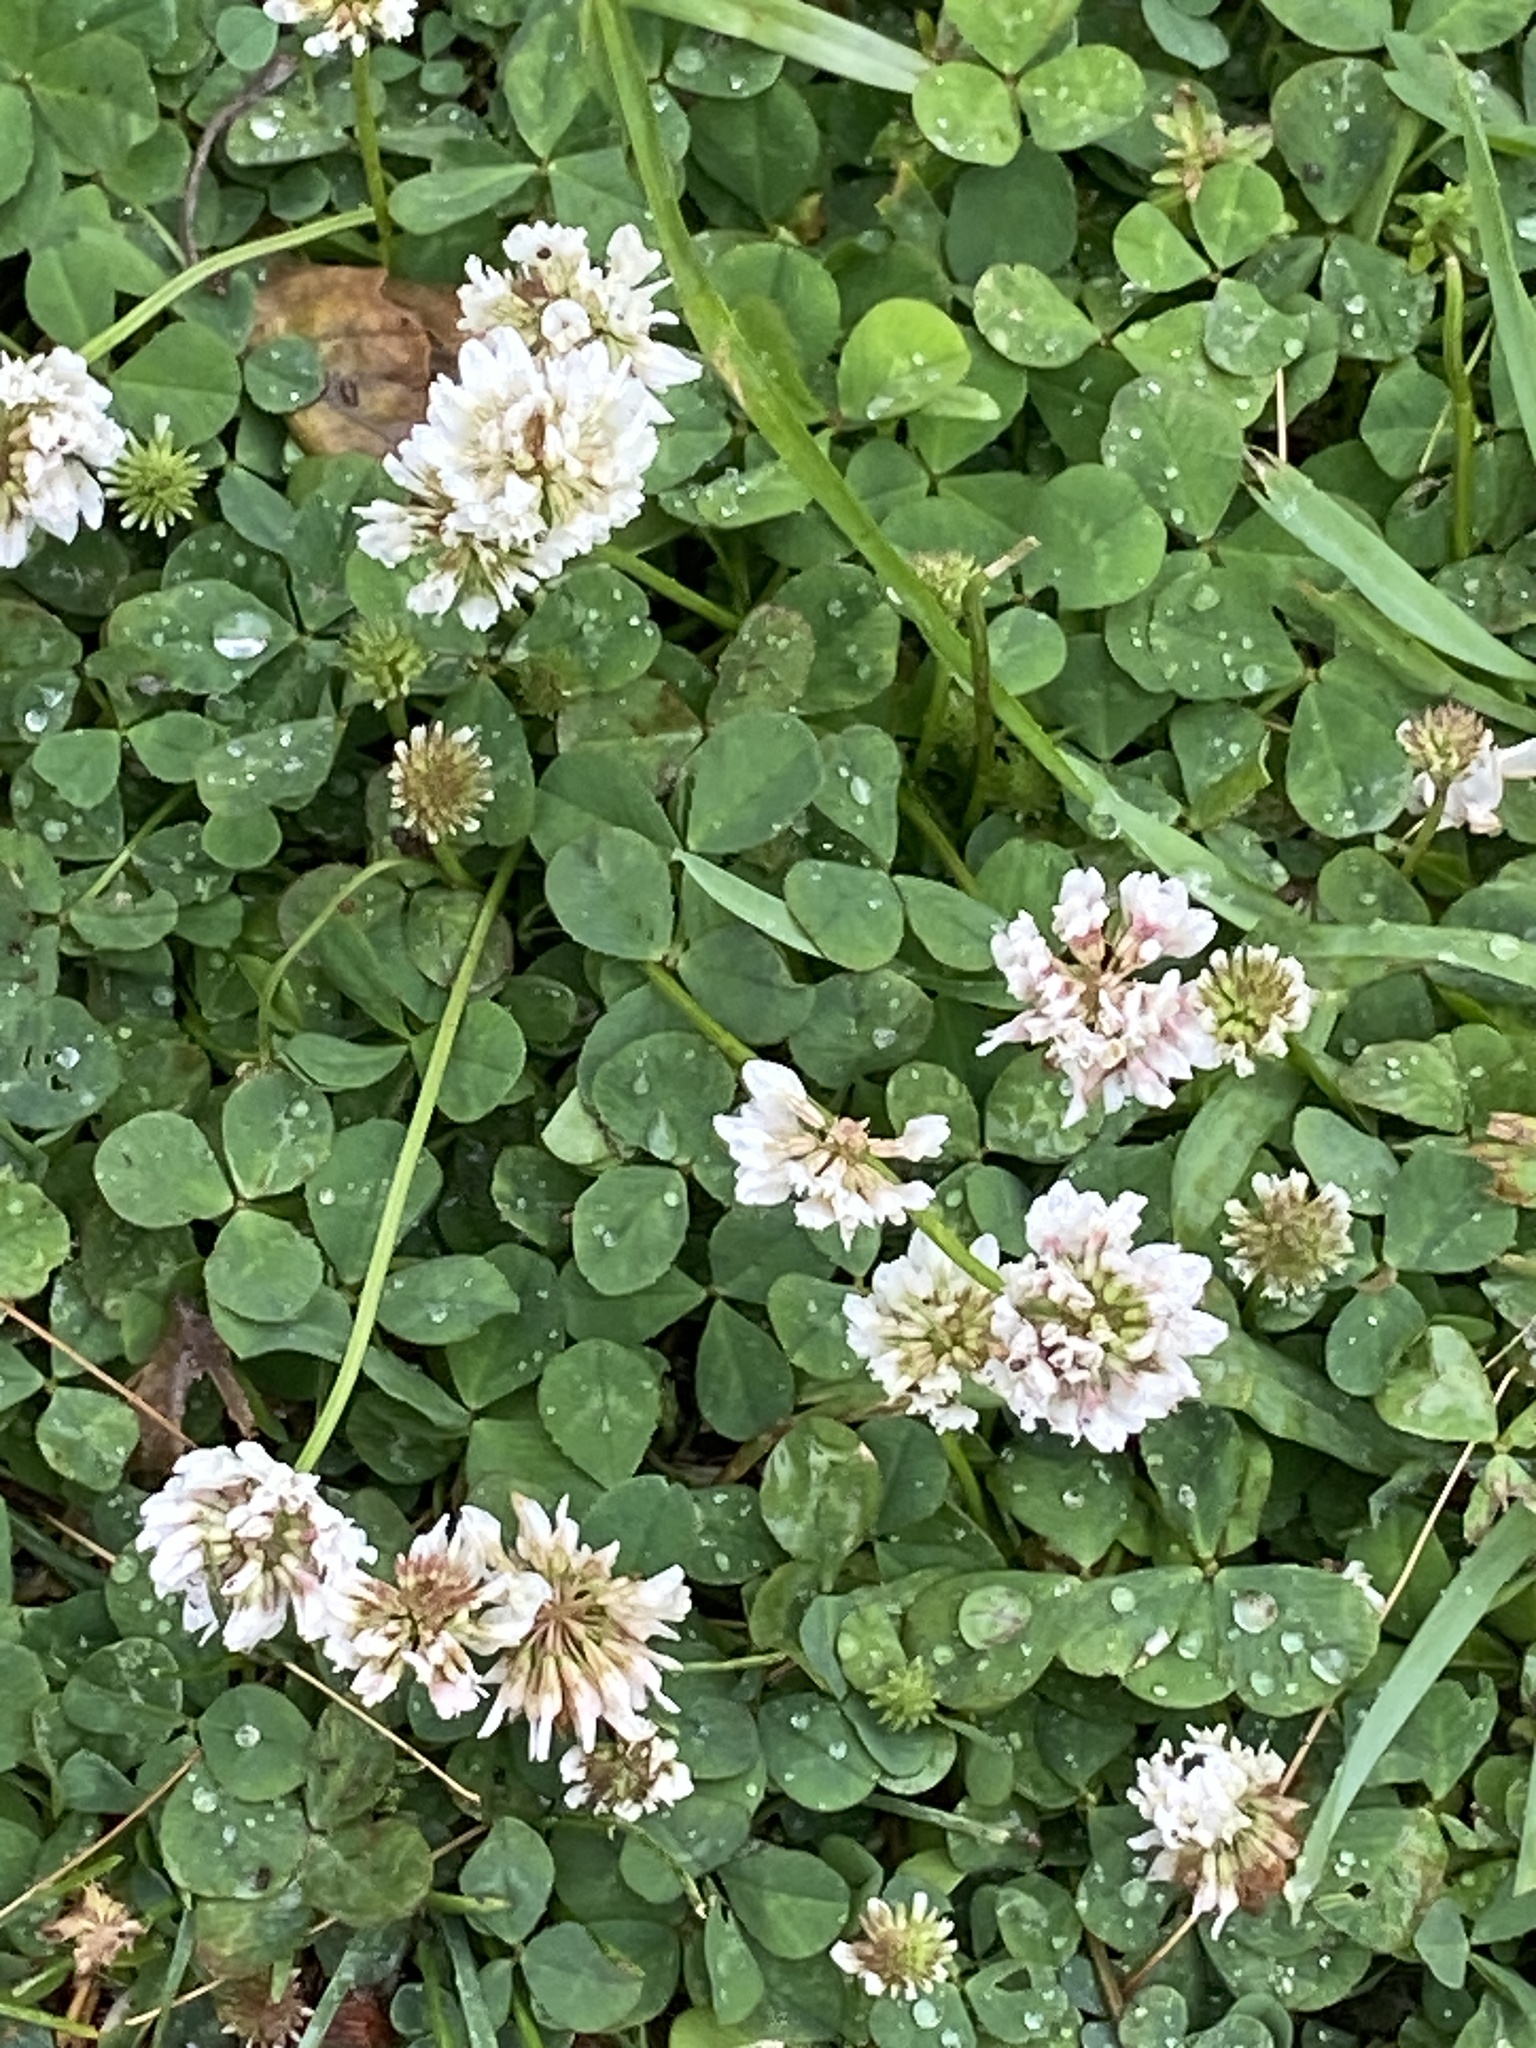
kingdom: Plantae
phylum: Tracheophyta
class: Magnoliopsida
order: Fabales
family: Fabaceae
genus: Trifolium
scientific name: Trifolium repens
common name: White clover
